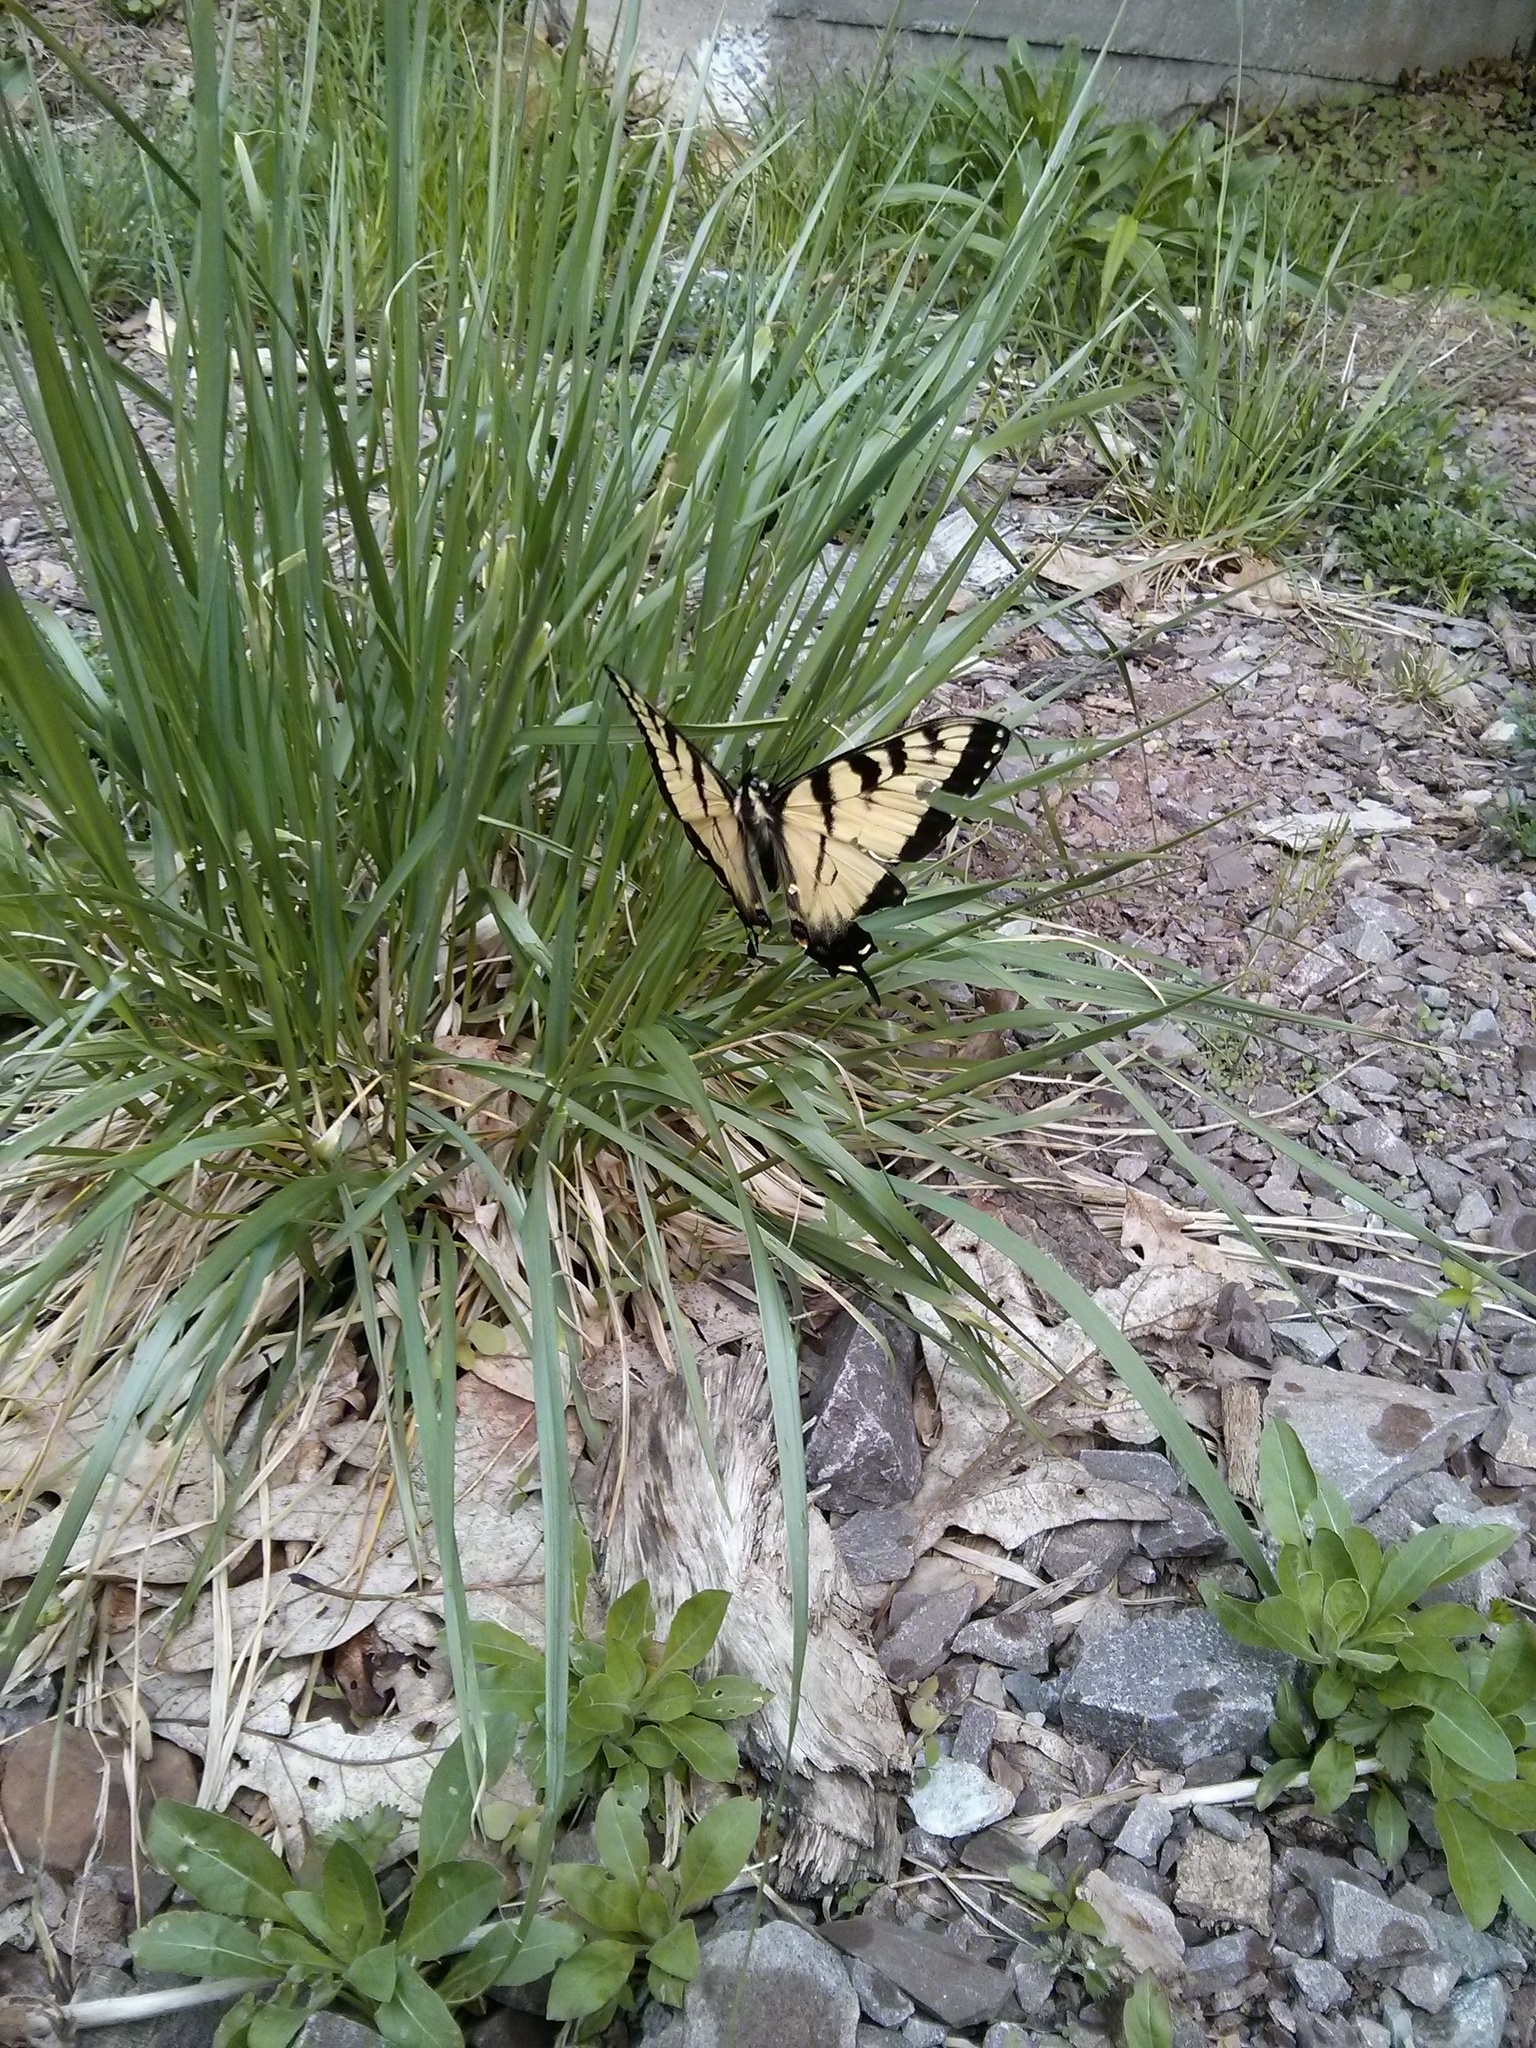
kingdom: Animalia
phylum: Arthropoda
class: Insecta
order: Lepidoptera
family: Papilionidae
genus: Papilio
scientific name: Papilio glaucus
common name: Tiger swallowtail
